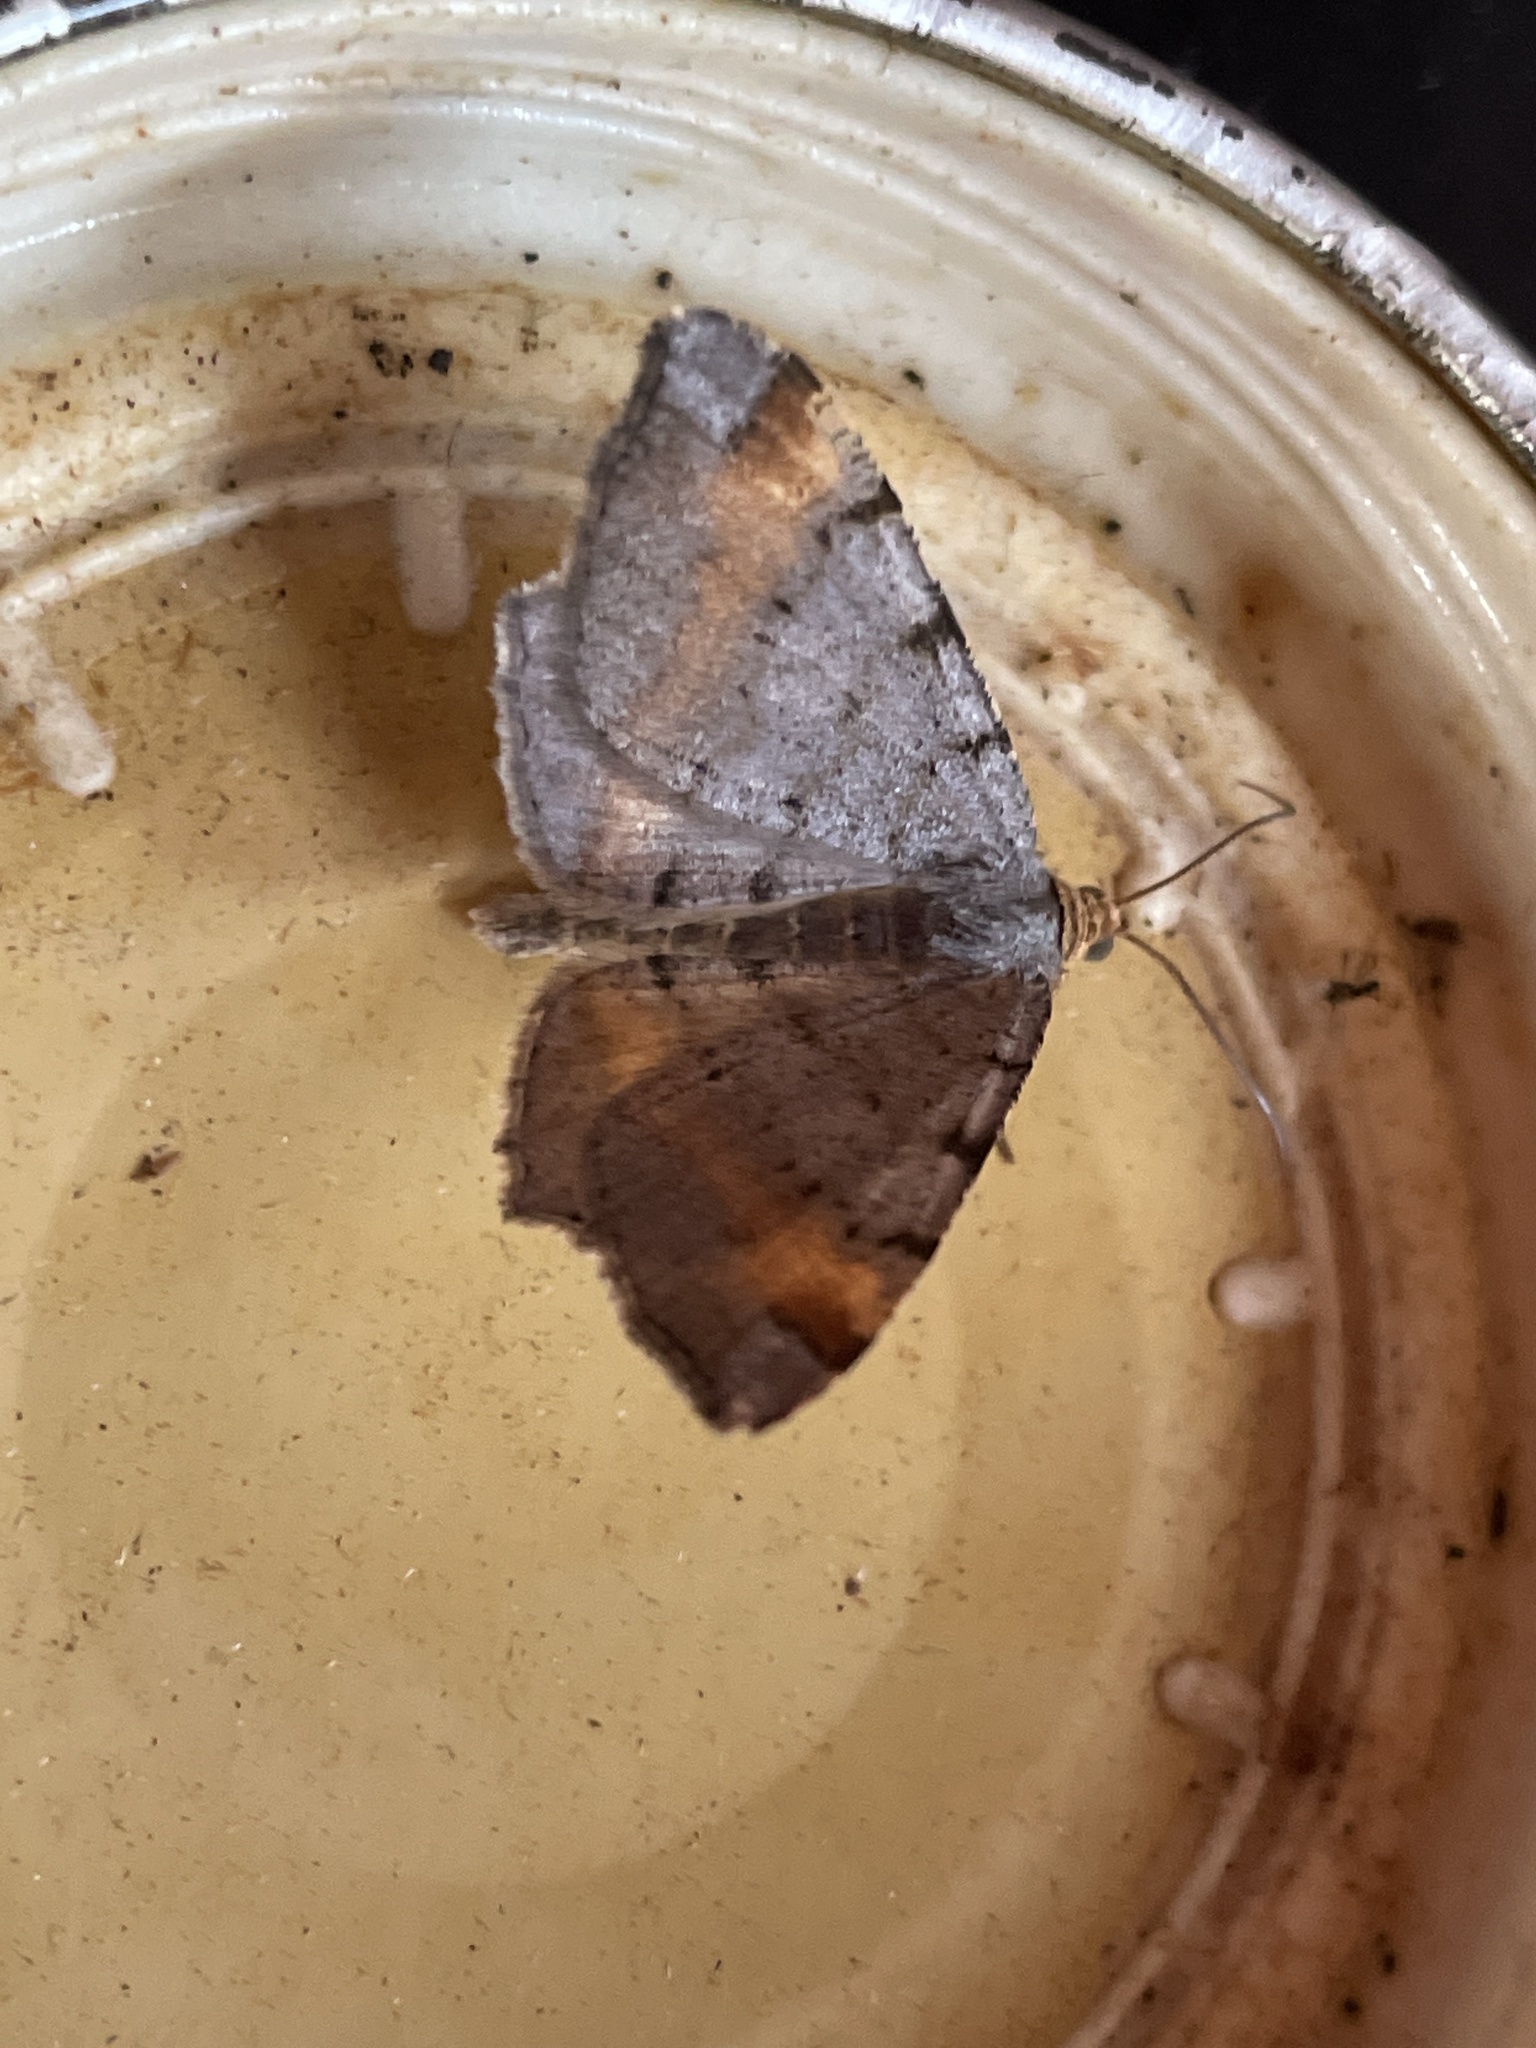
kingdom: Animalia
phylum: Arthropoda
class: Insecta
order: Lepidoptera
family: Geometridae
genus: Macaria
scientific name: Macaria liturata
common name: Tawny-barred angle
